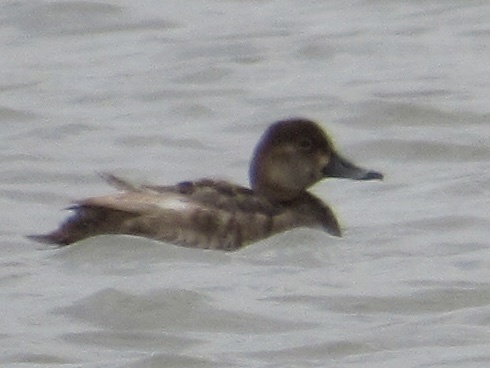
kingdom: Animalia
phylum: Chordata
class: Aves
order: Anseriformes
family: Anatidae
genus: Aythya
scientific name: Aythya americana
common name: Redhead
